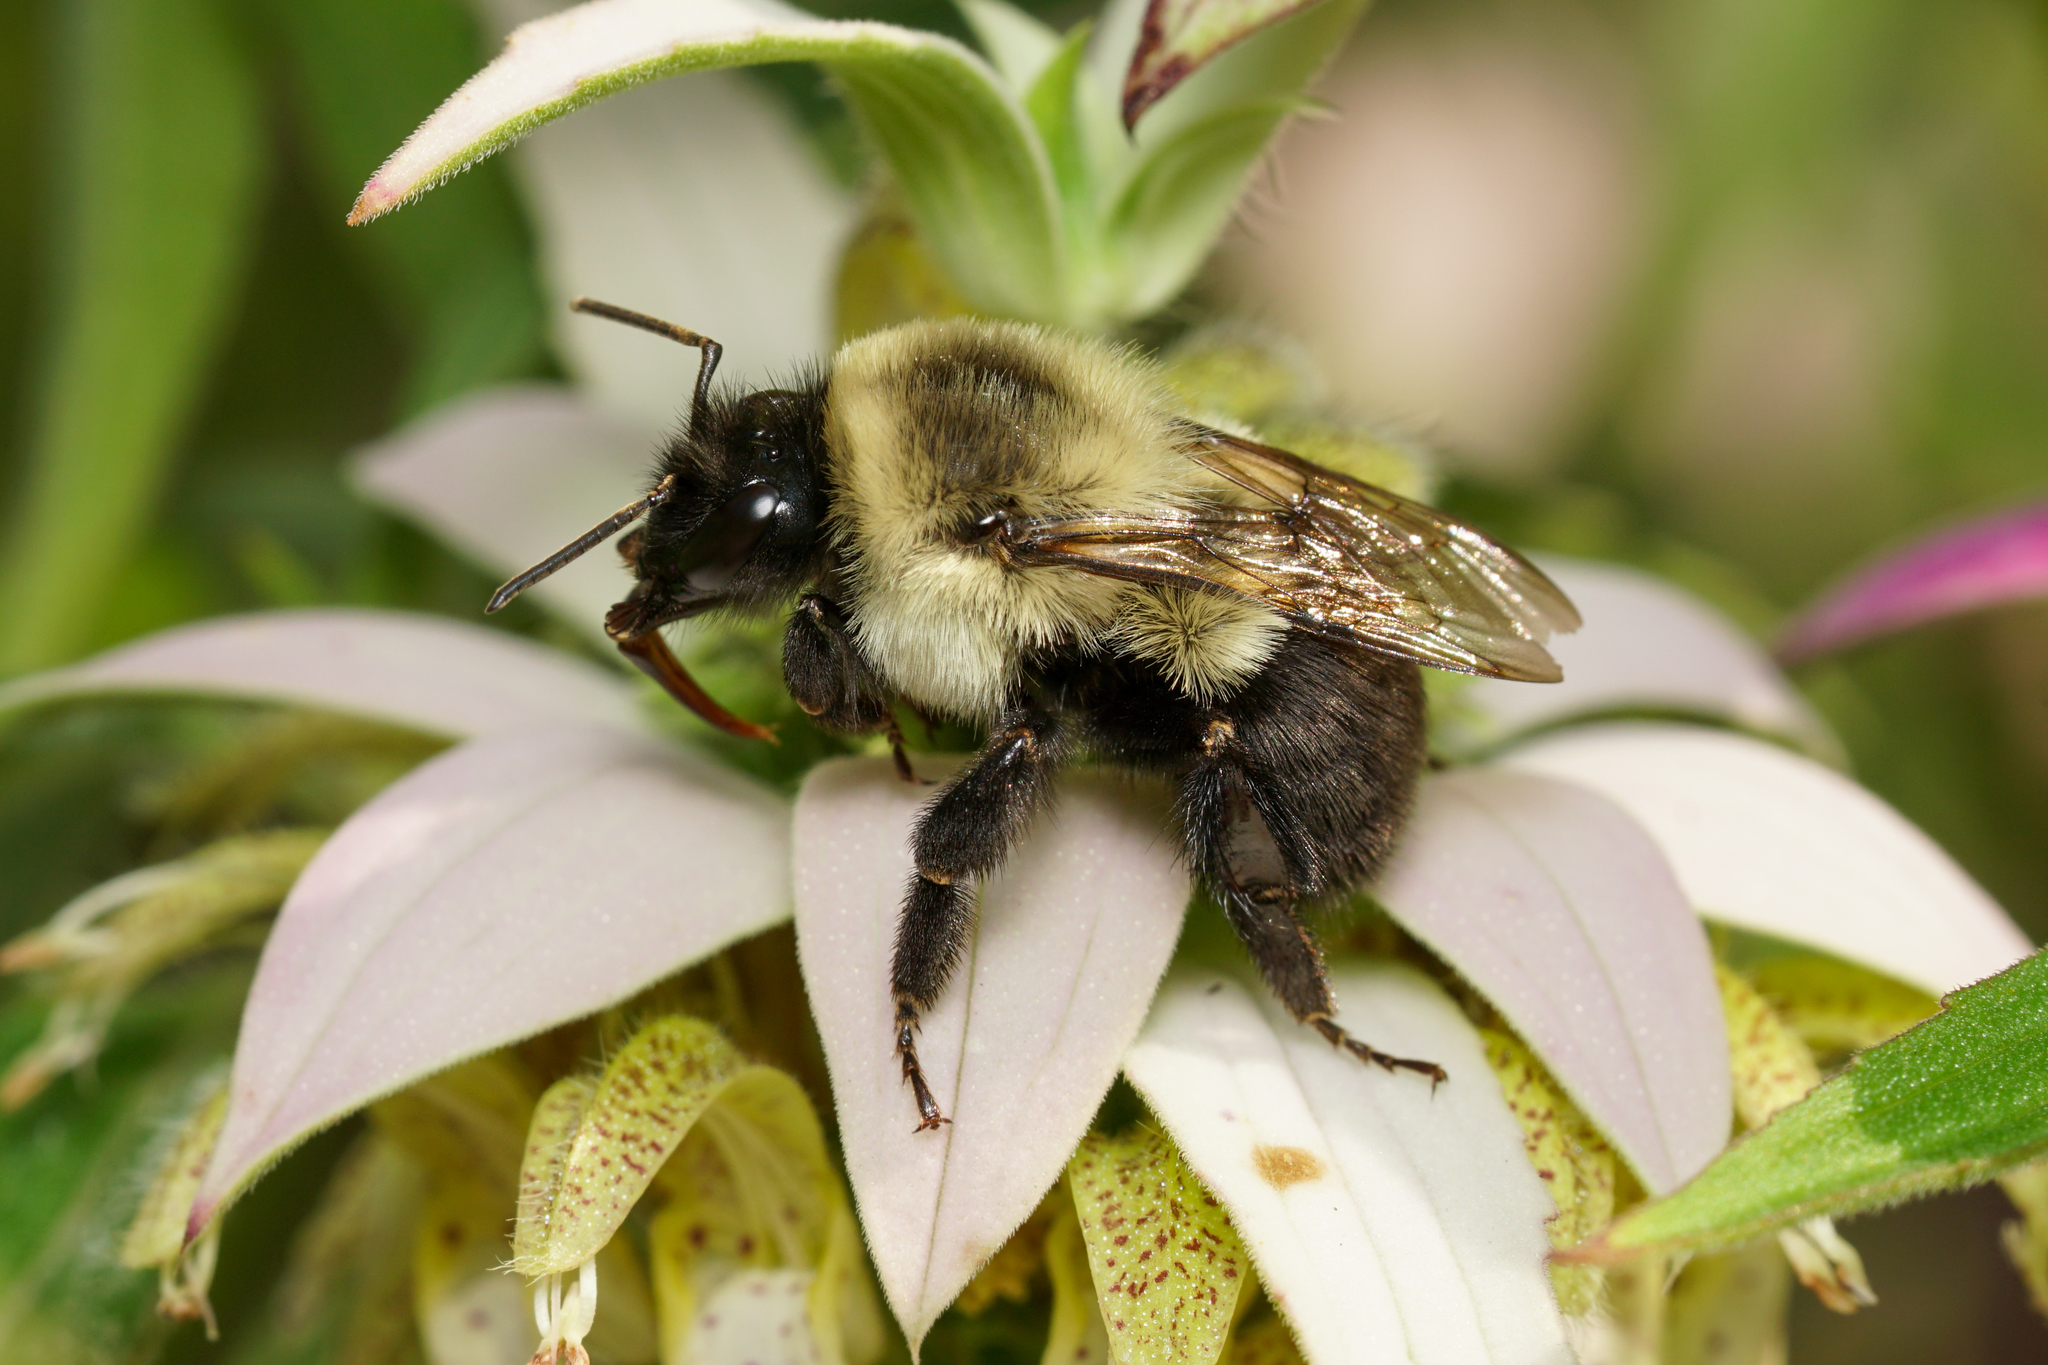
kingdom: Animalia
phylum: Arthropoda
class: Insecta
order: Hymenoptera
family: Apidae
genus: Bombus
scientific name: Bombus impatiens
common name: Common eastern bumble bee
